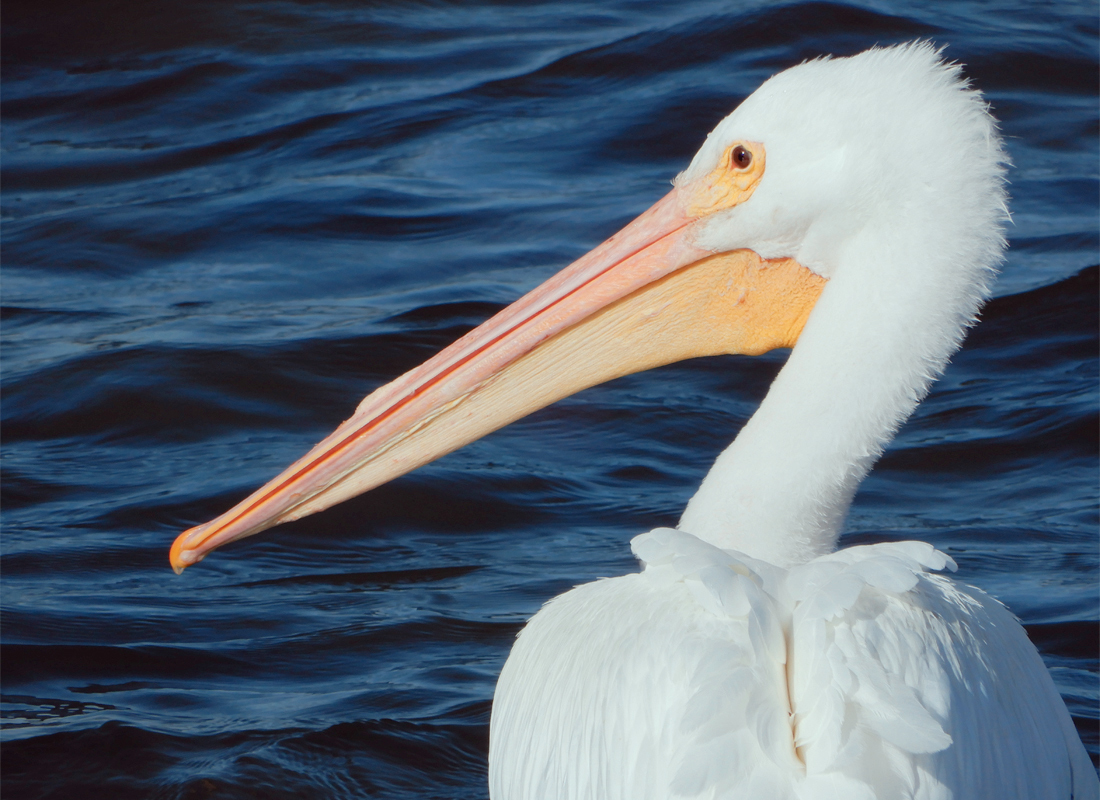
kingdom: Animalia
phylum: Chordata
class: Aves
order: Pelecaniformes
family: Pelecanidae
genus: Pelecanus
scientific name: Pelecanus erythrorhynchos
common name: American white pelican
